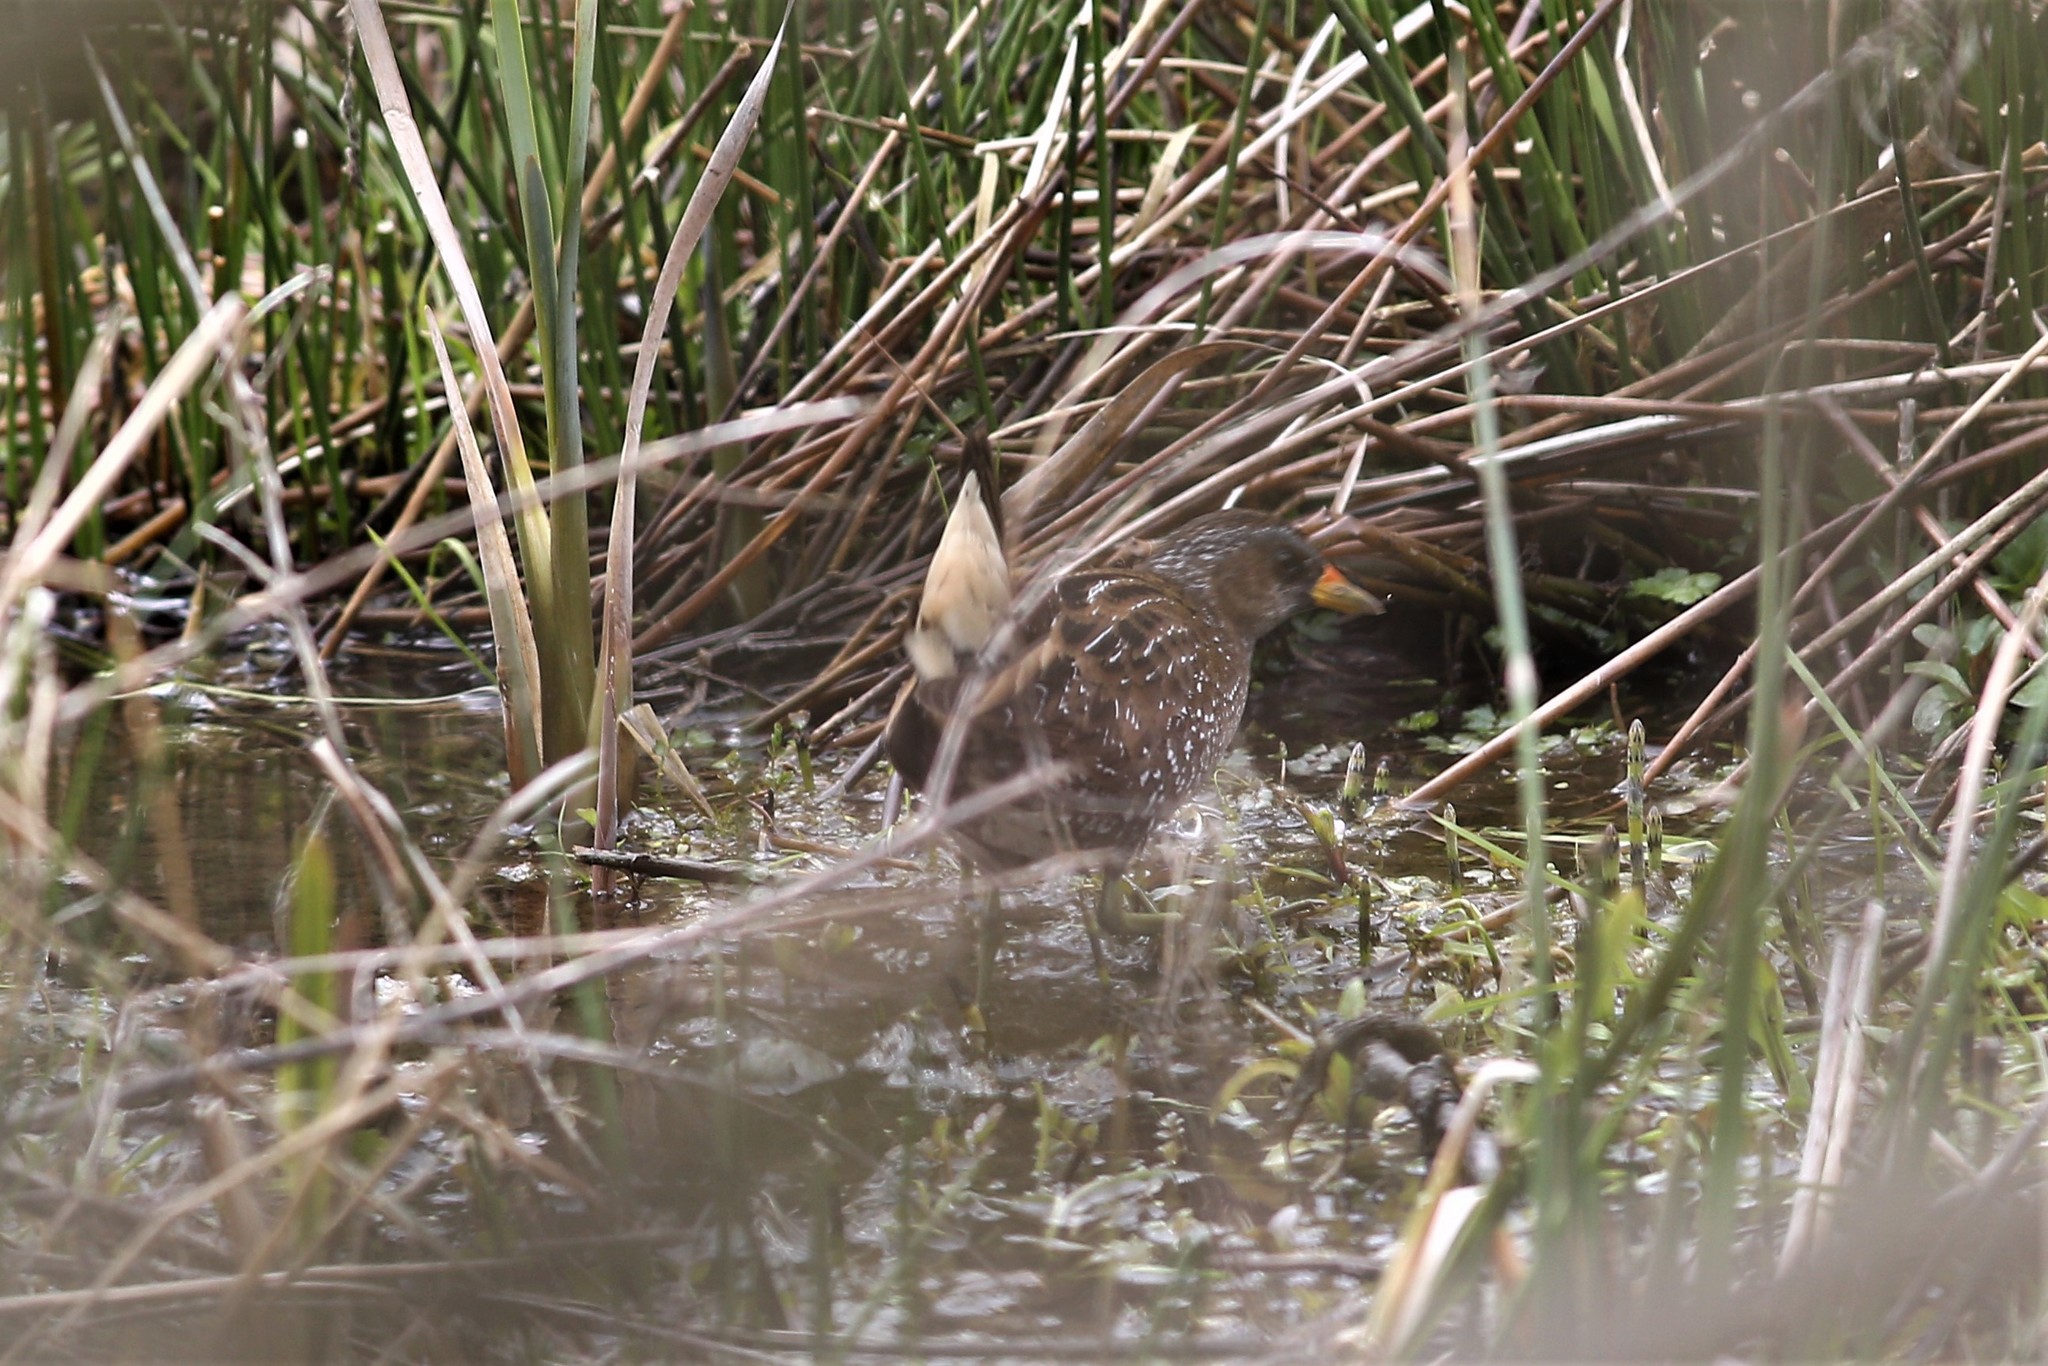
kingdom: Animalia
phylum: Chordata
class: Aves
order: Gruiformes
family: Rallidae
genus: Porzana
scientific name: Porzana porzana
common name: Spotted crake
